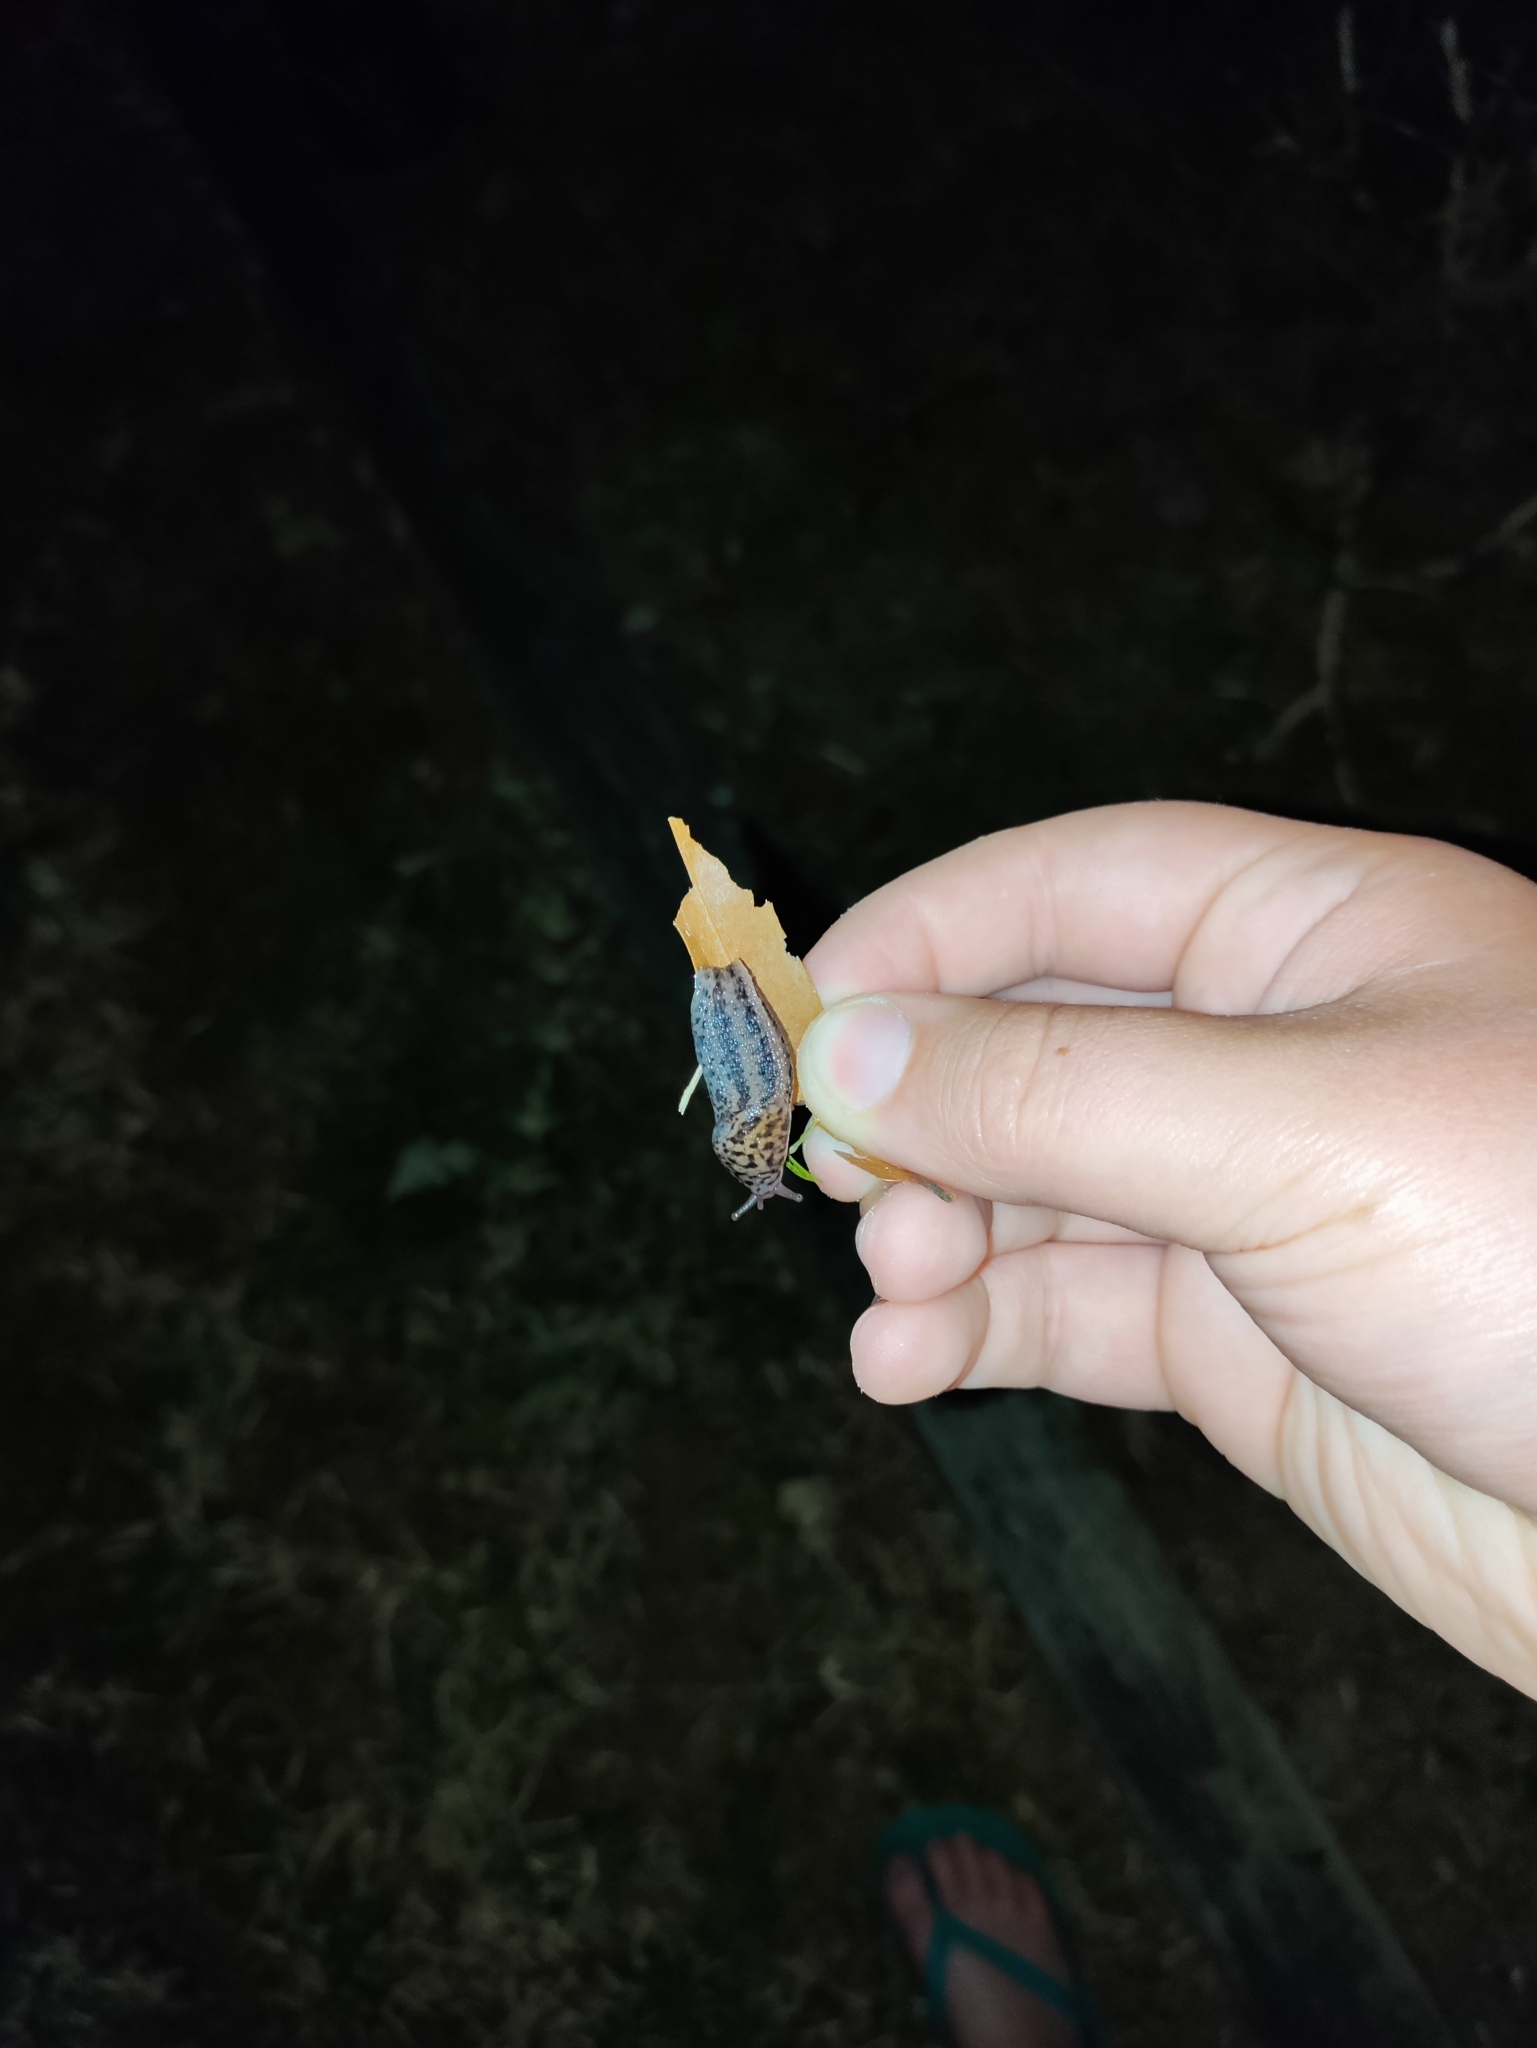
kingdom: Animalia
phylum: Mollusca
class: Gastropoda
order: Stylommatophora
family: Limacidae
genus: Limax
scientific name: Limax maximus
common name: Great grey slug
